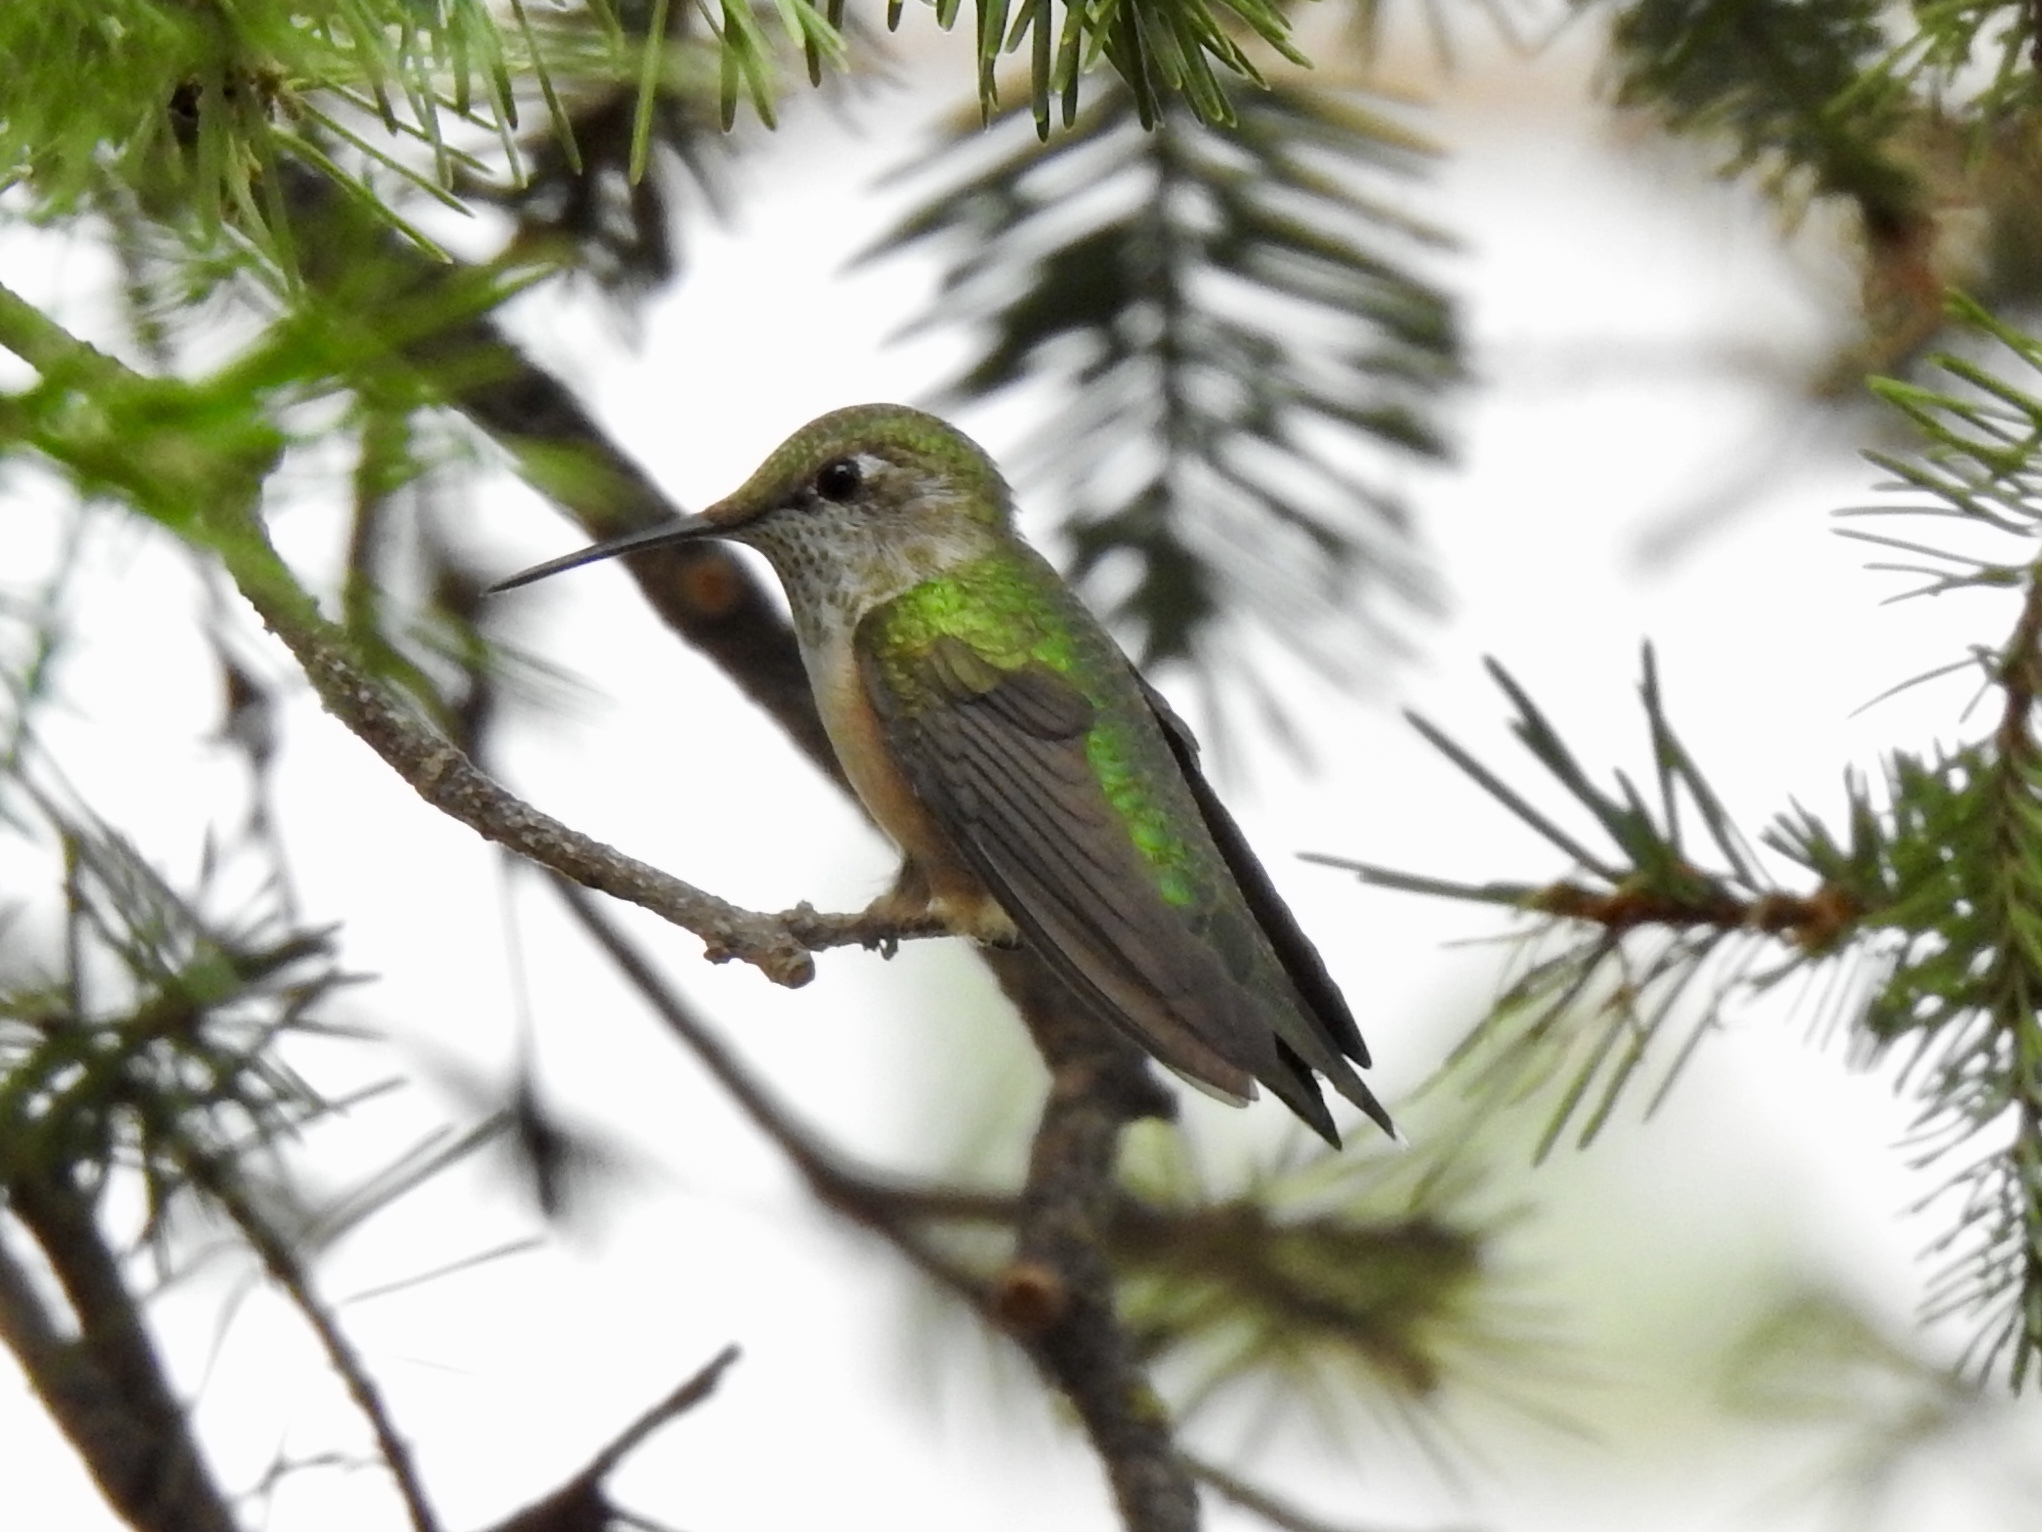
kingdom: Animalia
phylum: Chordata
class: Aves
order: Apodiformes
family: Trochilidae
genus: Selasphorus
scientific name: Selasphorus platycercus
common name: Broad-tailed hummingbird
